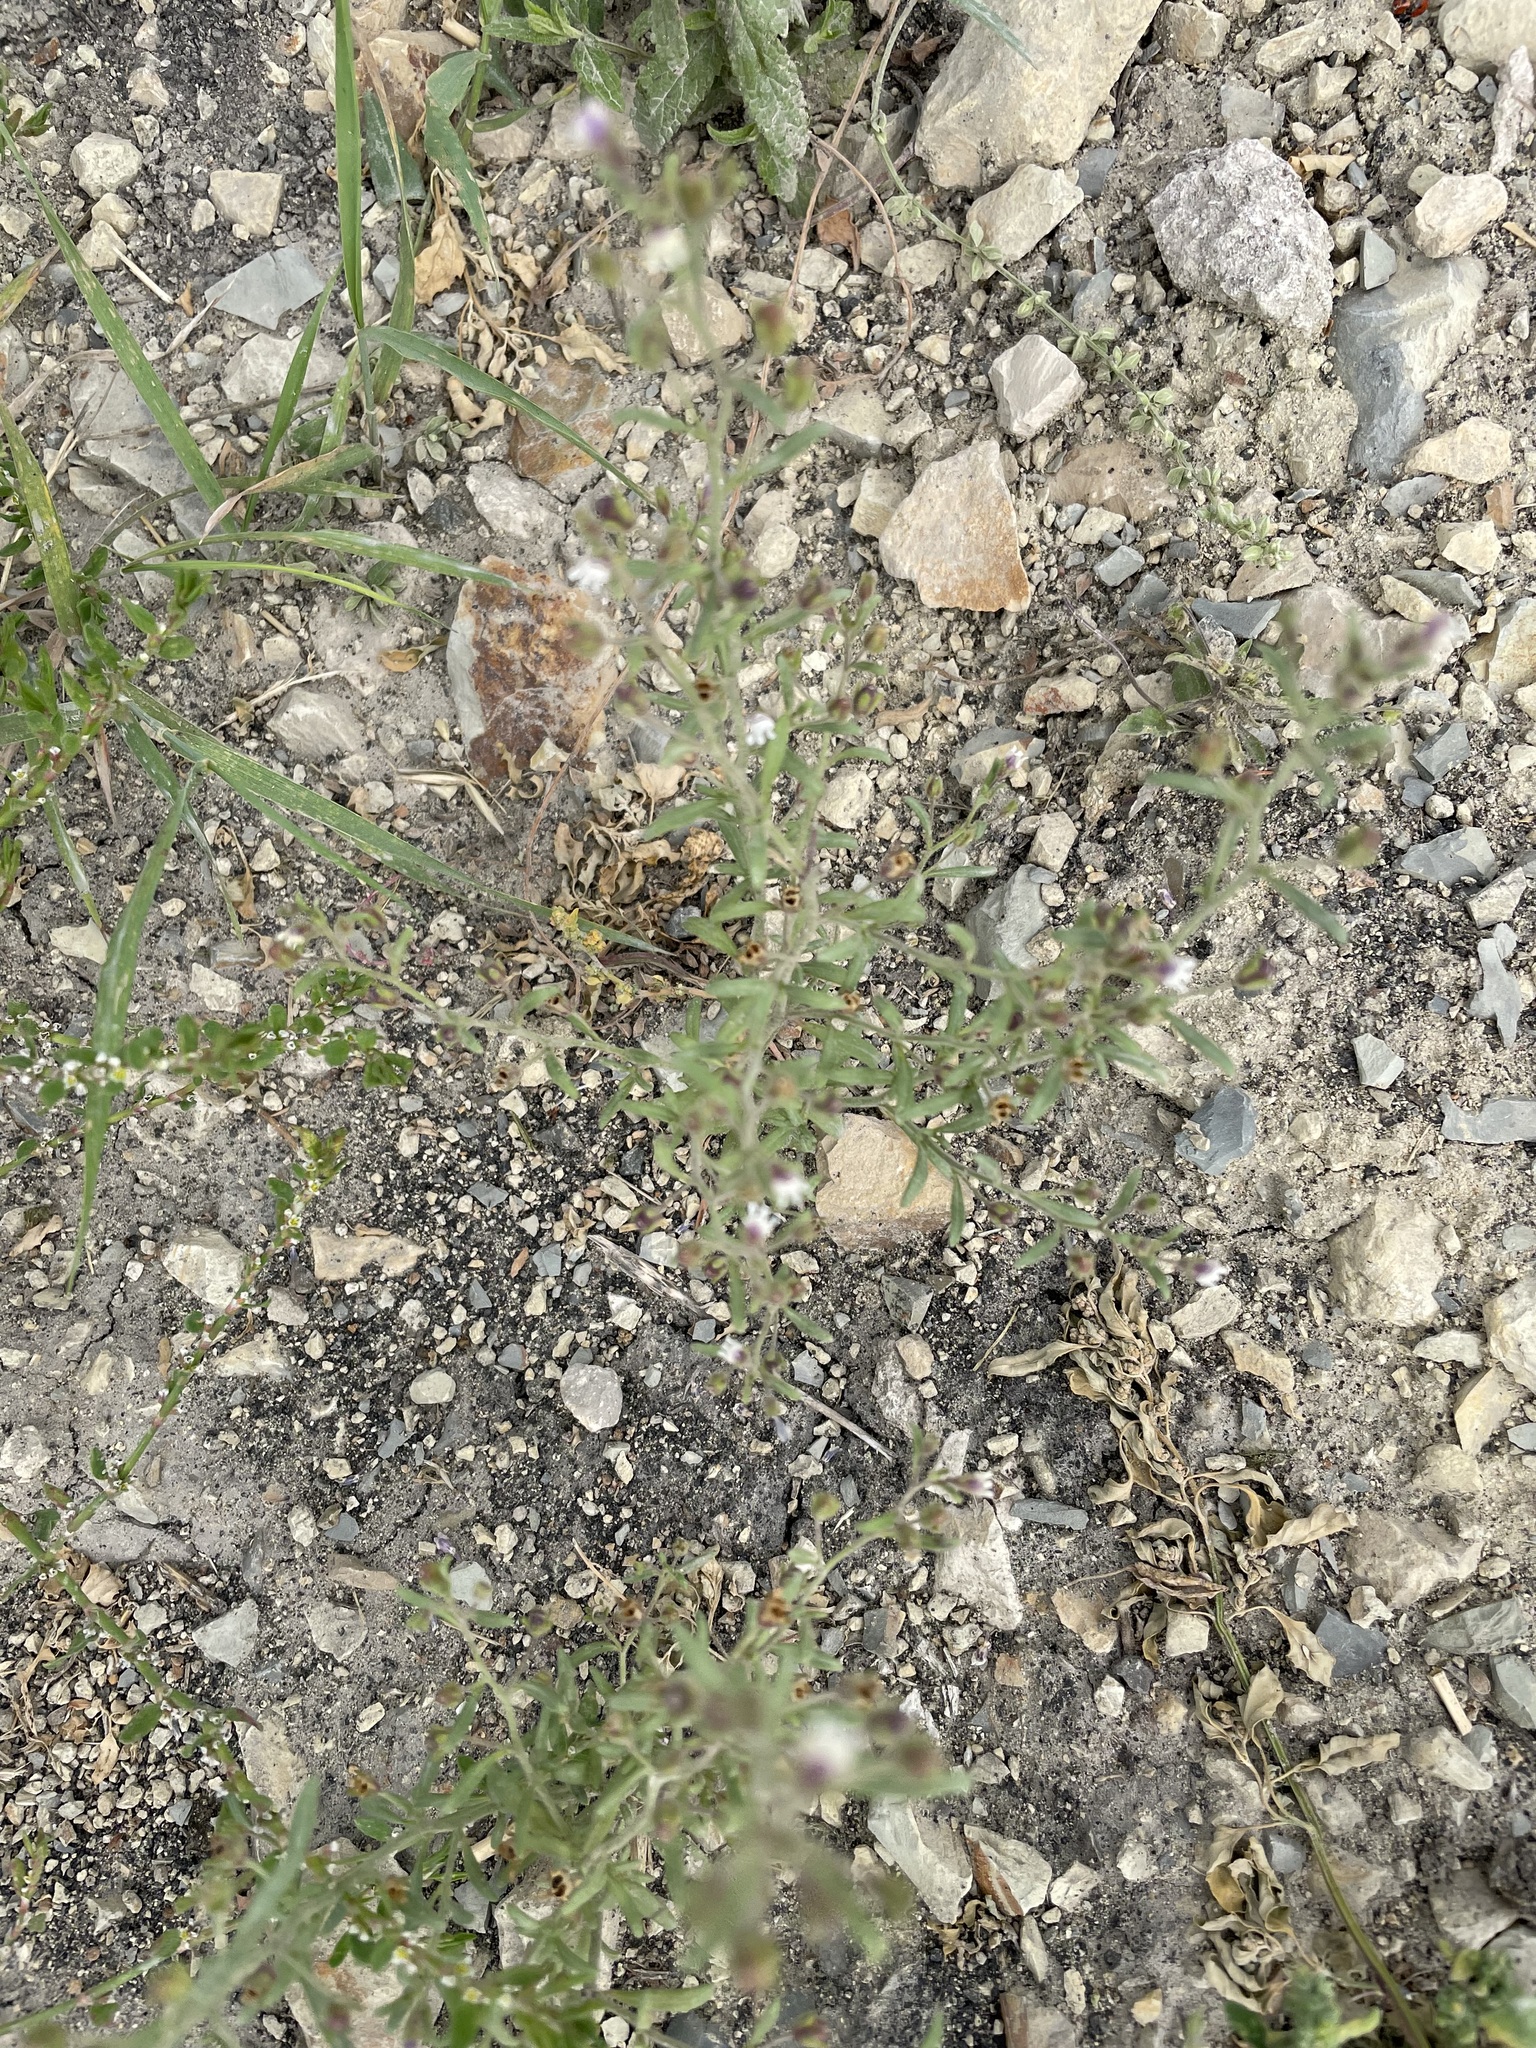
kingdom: Plantae
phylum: Tracheophyta
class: Magnoliopsida
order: Lamiales
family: Plantaginaceae
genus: Chaenorhinum
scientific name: Chaenorhinum minus
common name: Dwarf snapdragon
